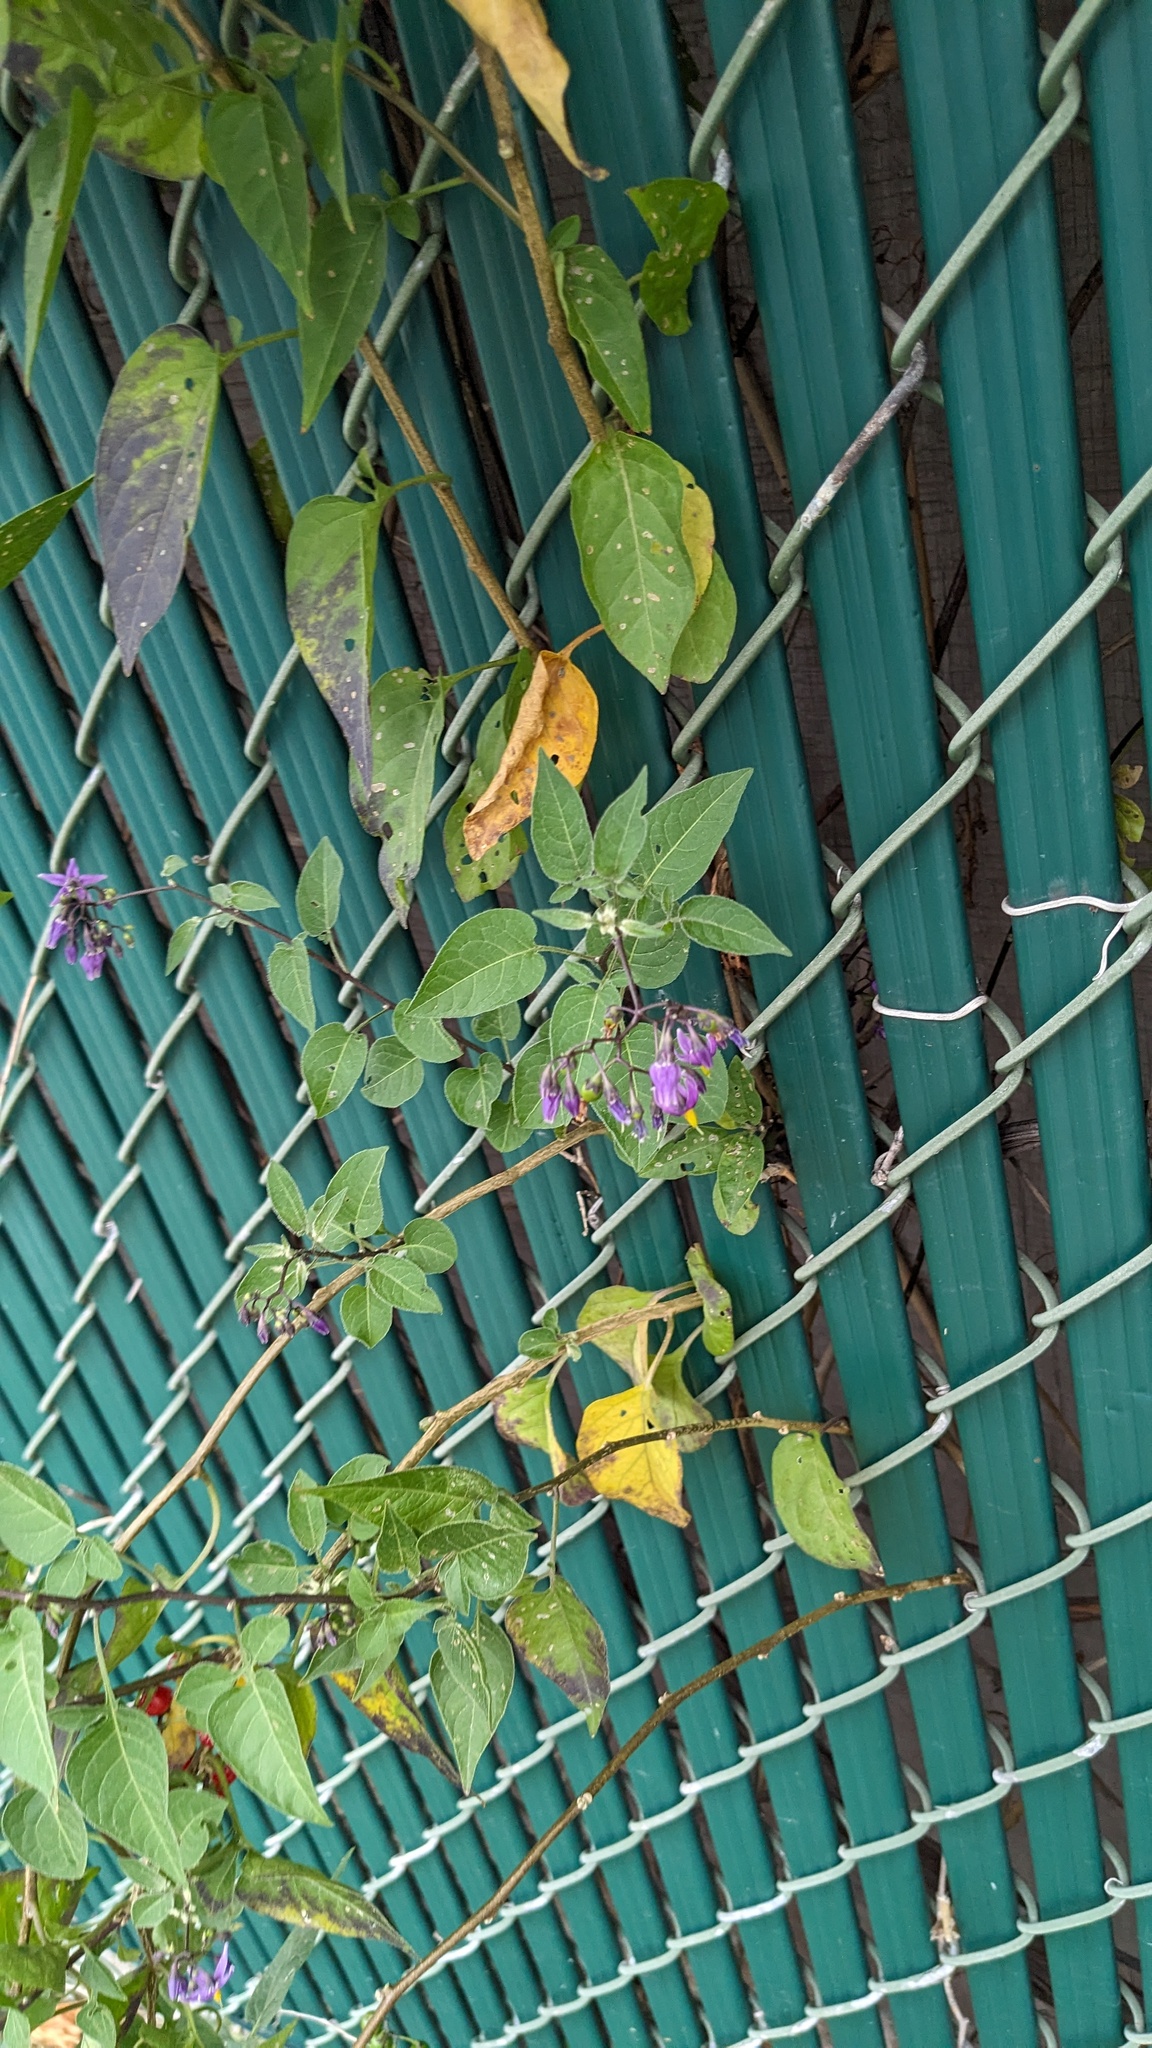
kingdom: Plantae
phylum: Tracheophyta
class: Magnoliopsida
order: Solanales
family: Solanaceae
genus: Solanum
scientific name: Solanum dulcamara
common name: Climbing nightshade
